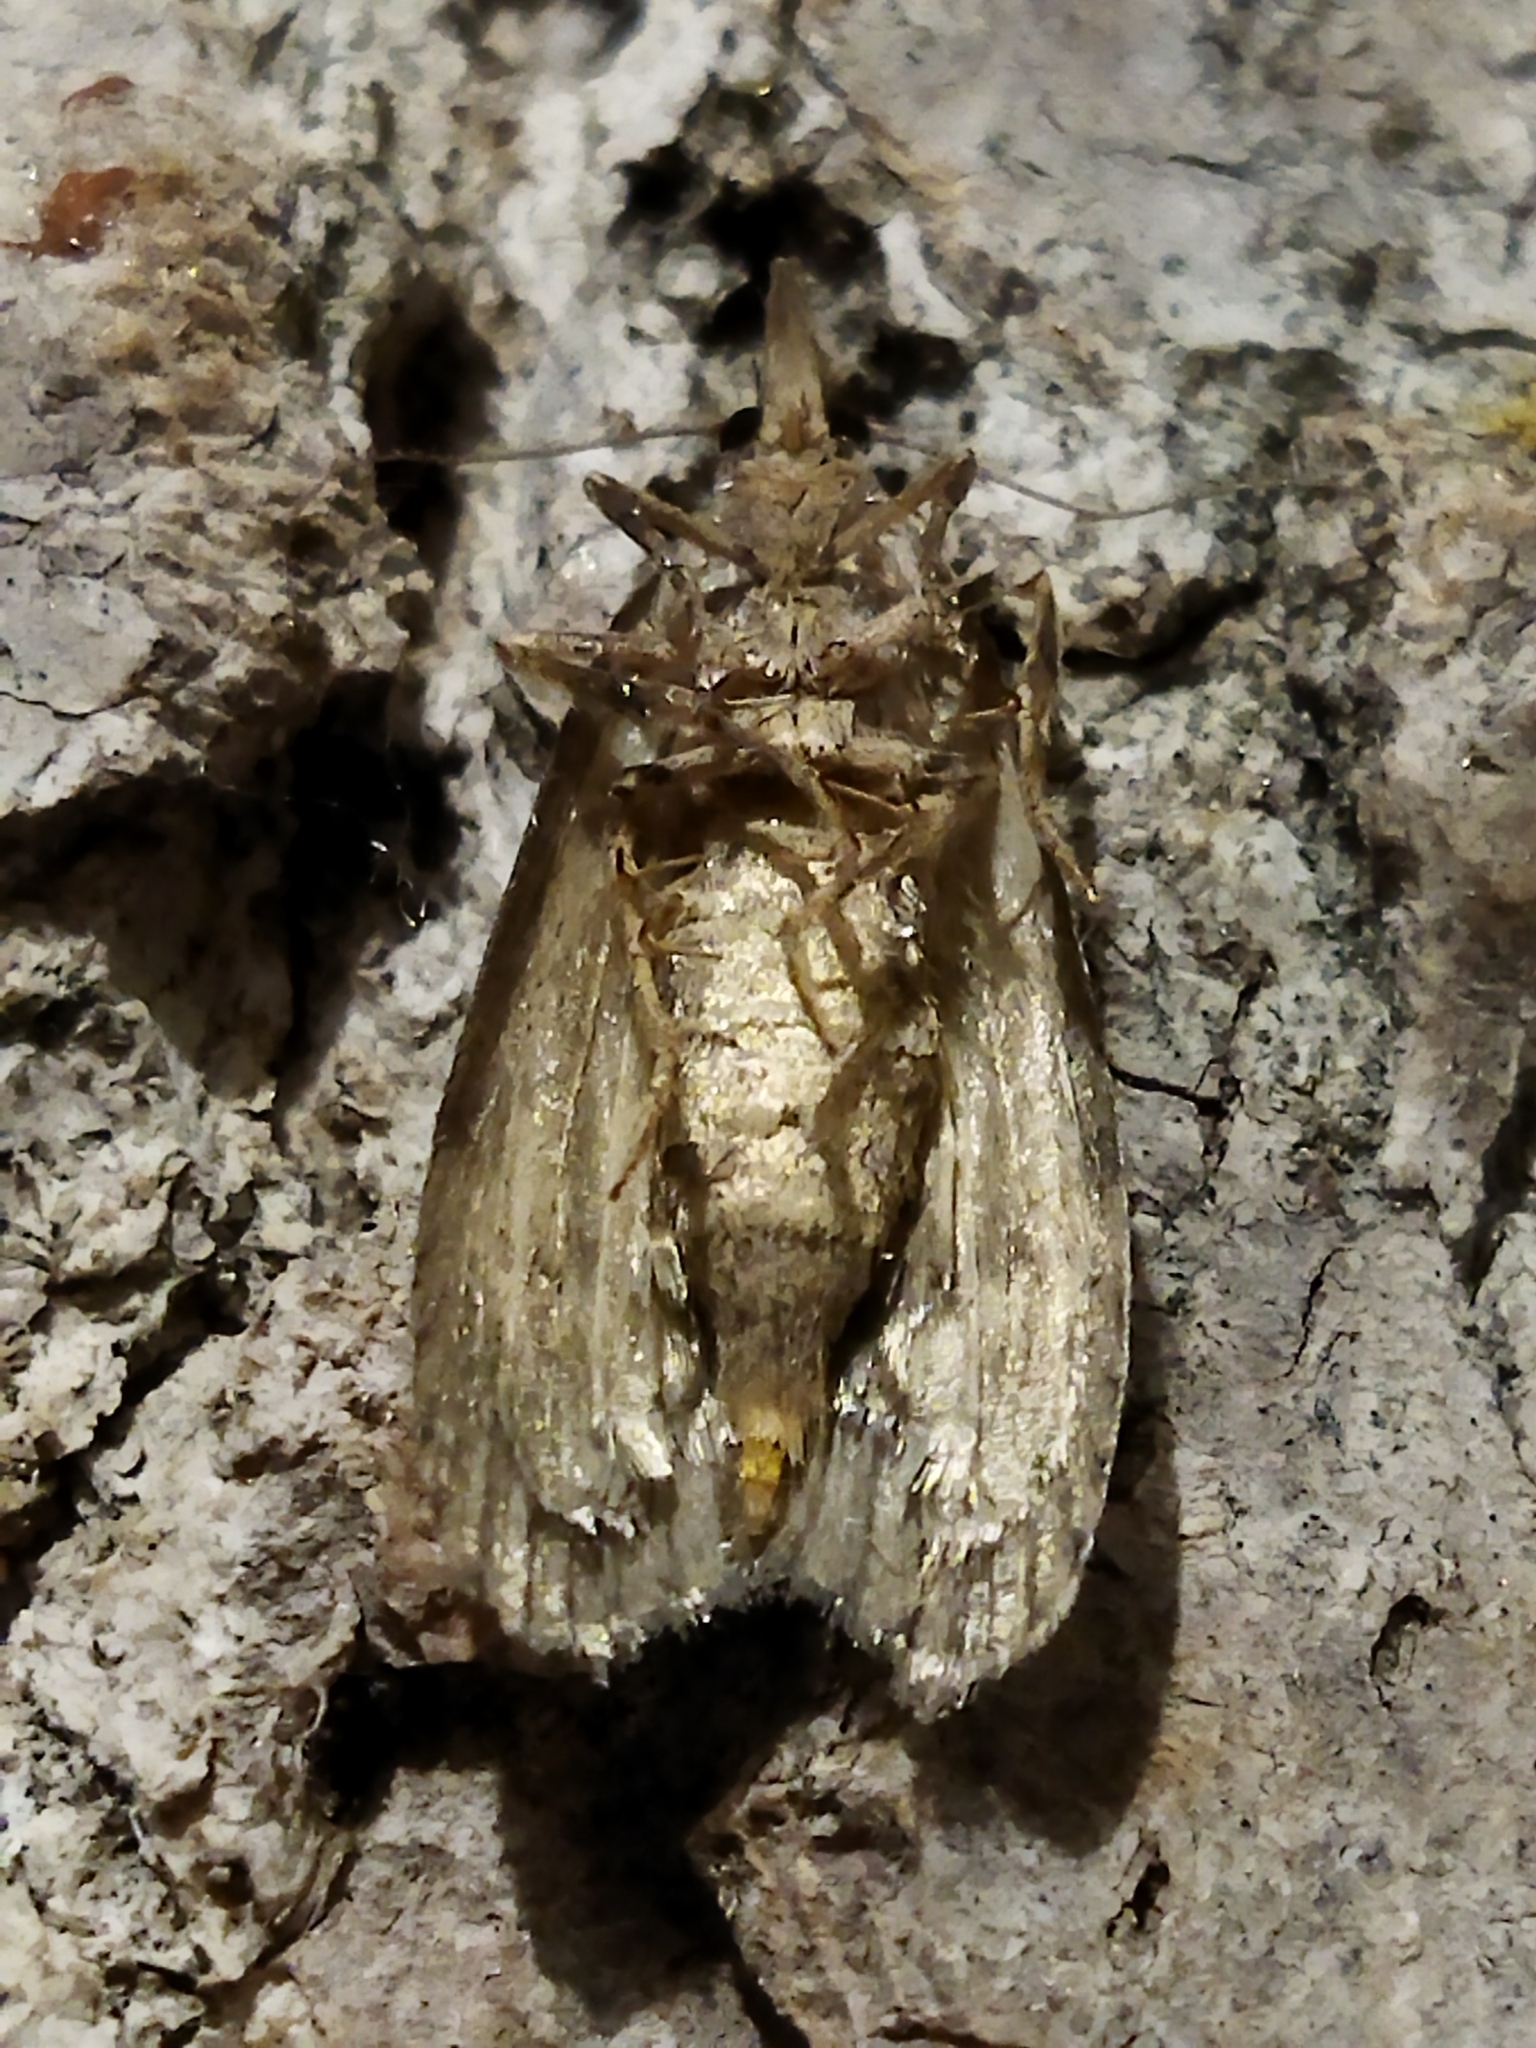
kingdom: Animalia
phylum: Arthropoda
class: Insecta
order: Lepidoptera
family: Pyralidae
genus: Lamoria
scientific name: Lamoria anella
